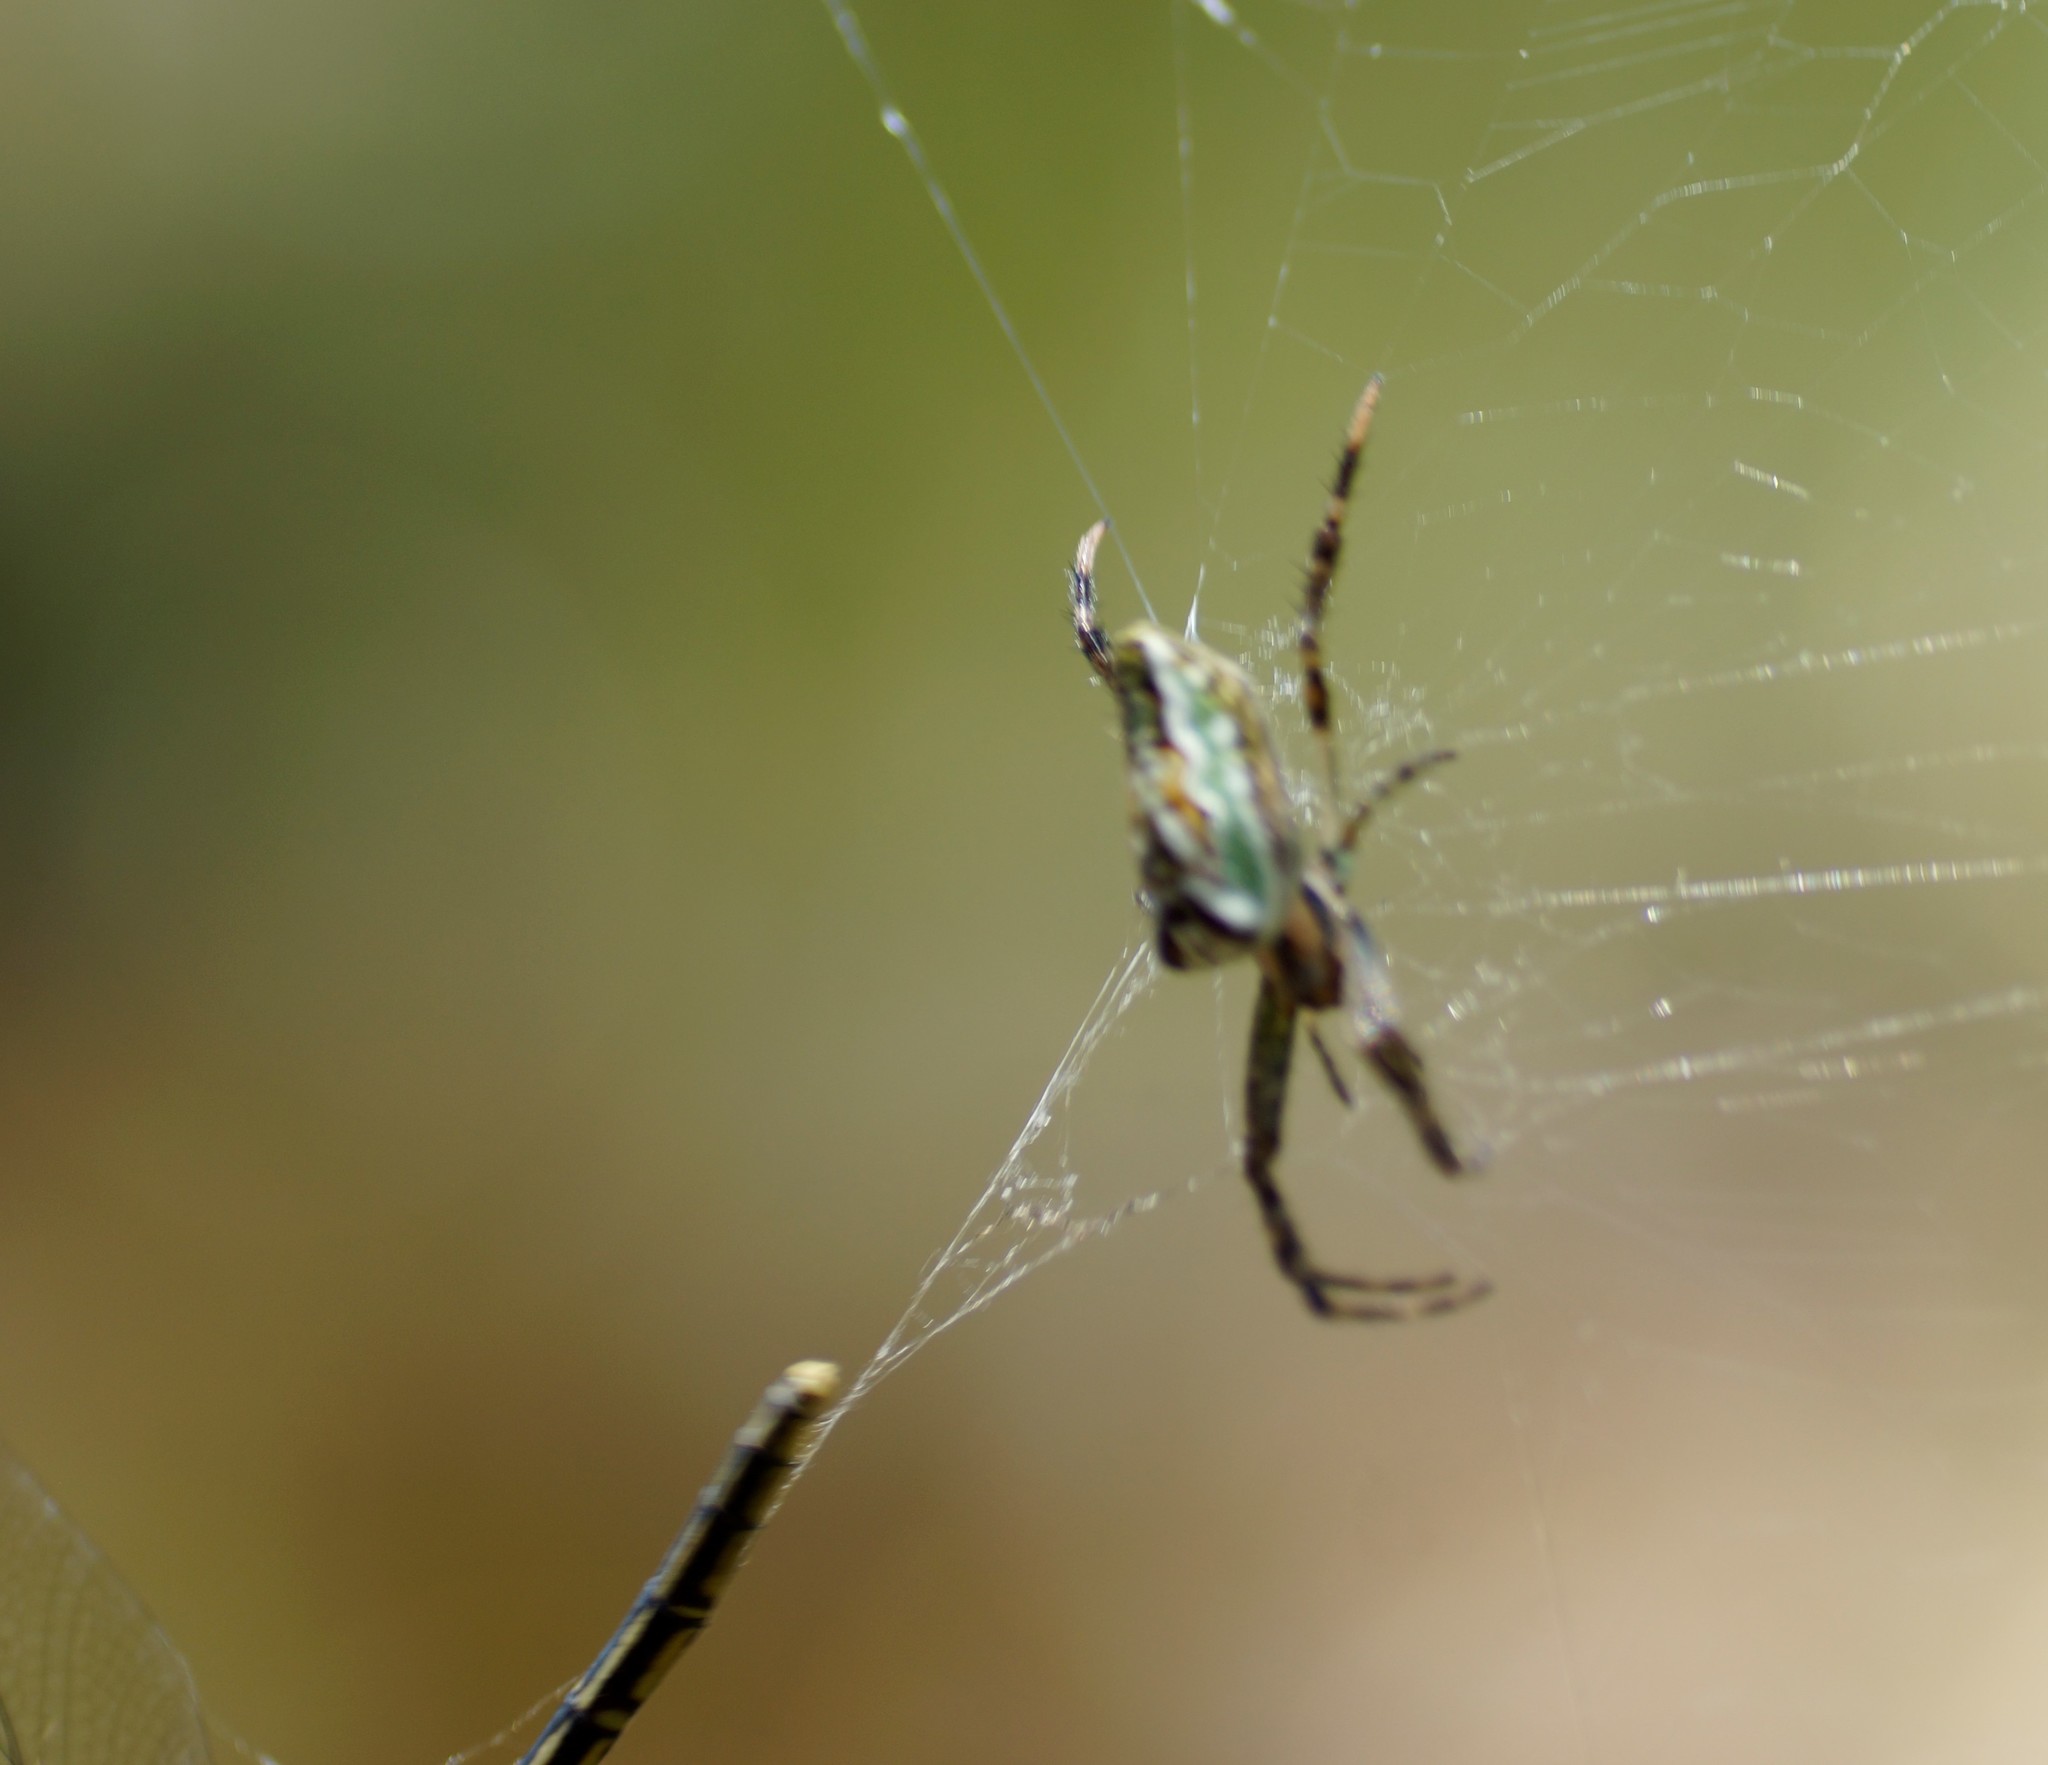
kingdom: Animalia
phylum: Arthropoda
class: Arachnida
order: Araneae
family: Araneidae
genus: Plebs
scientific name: Plebs bradleyi
